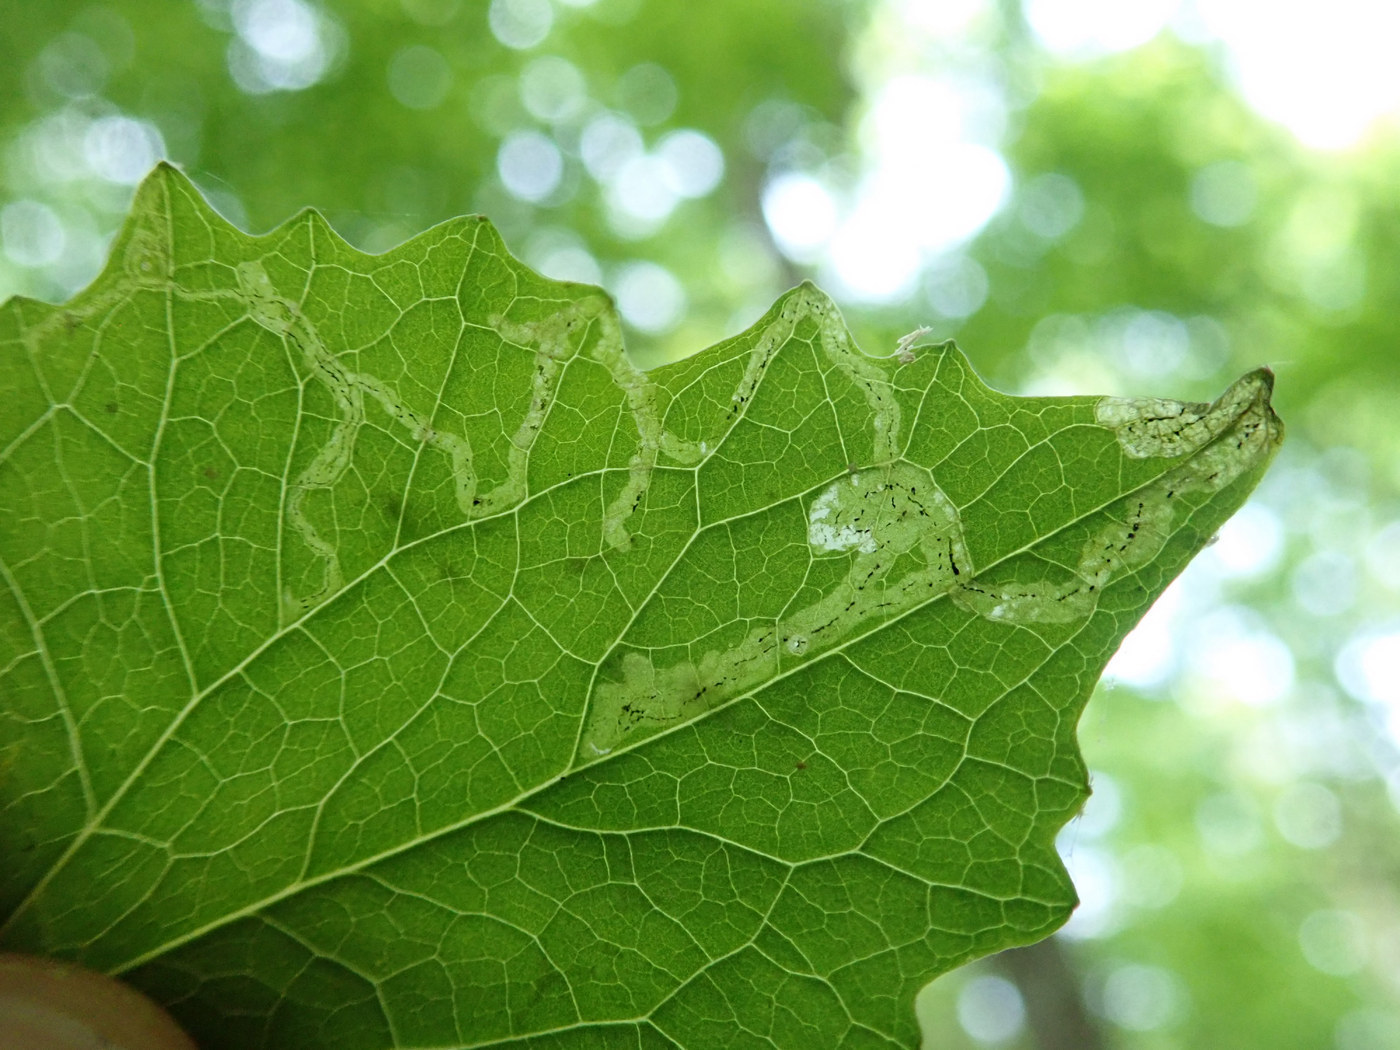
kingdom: Animalia
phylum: Arthropoda
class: Insecta
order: Diptera
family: Agromyzidae
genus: Liriomyza
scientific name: Liriomyza brassicae
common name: Serpentine leaf miner
